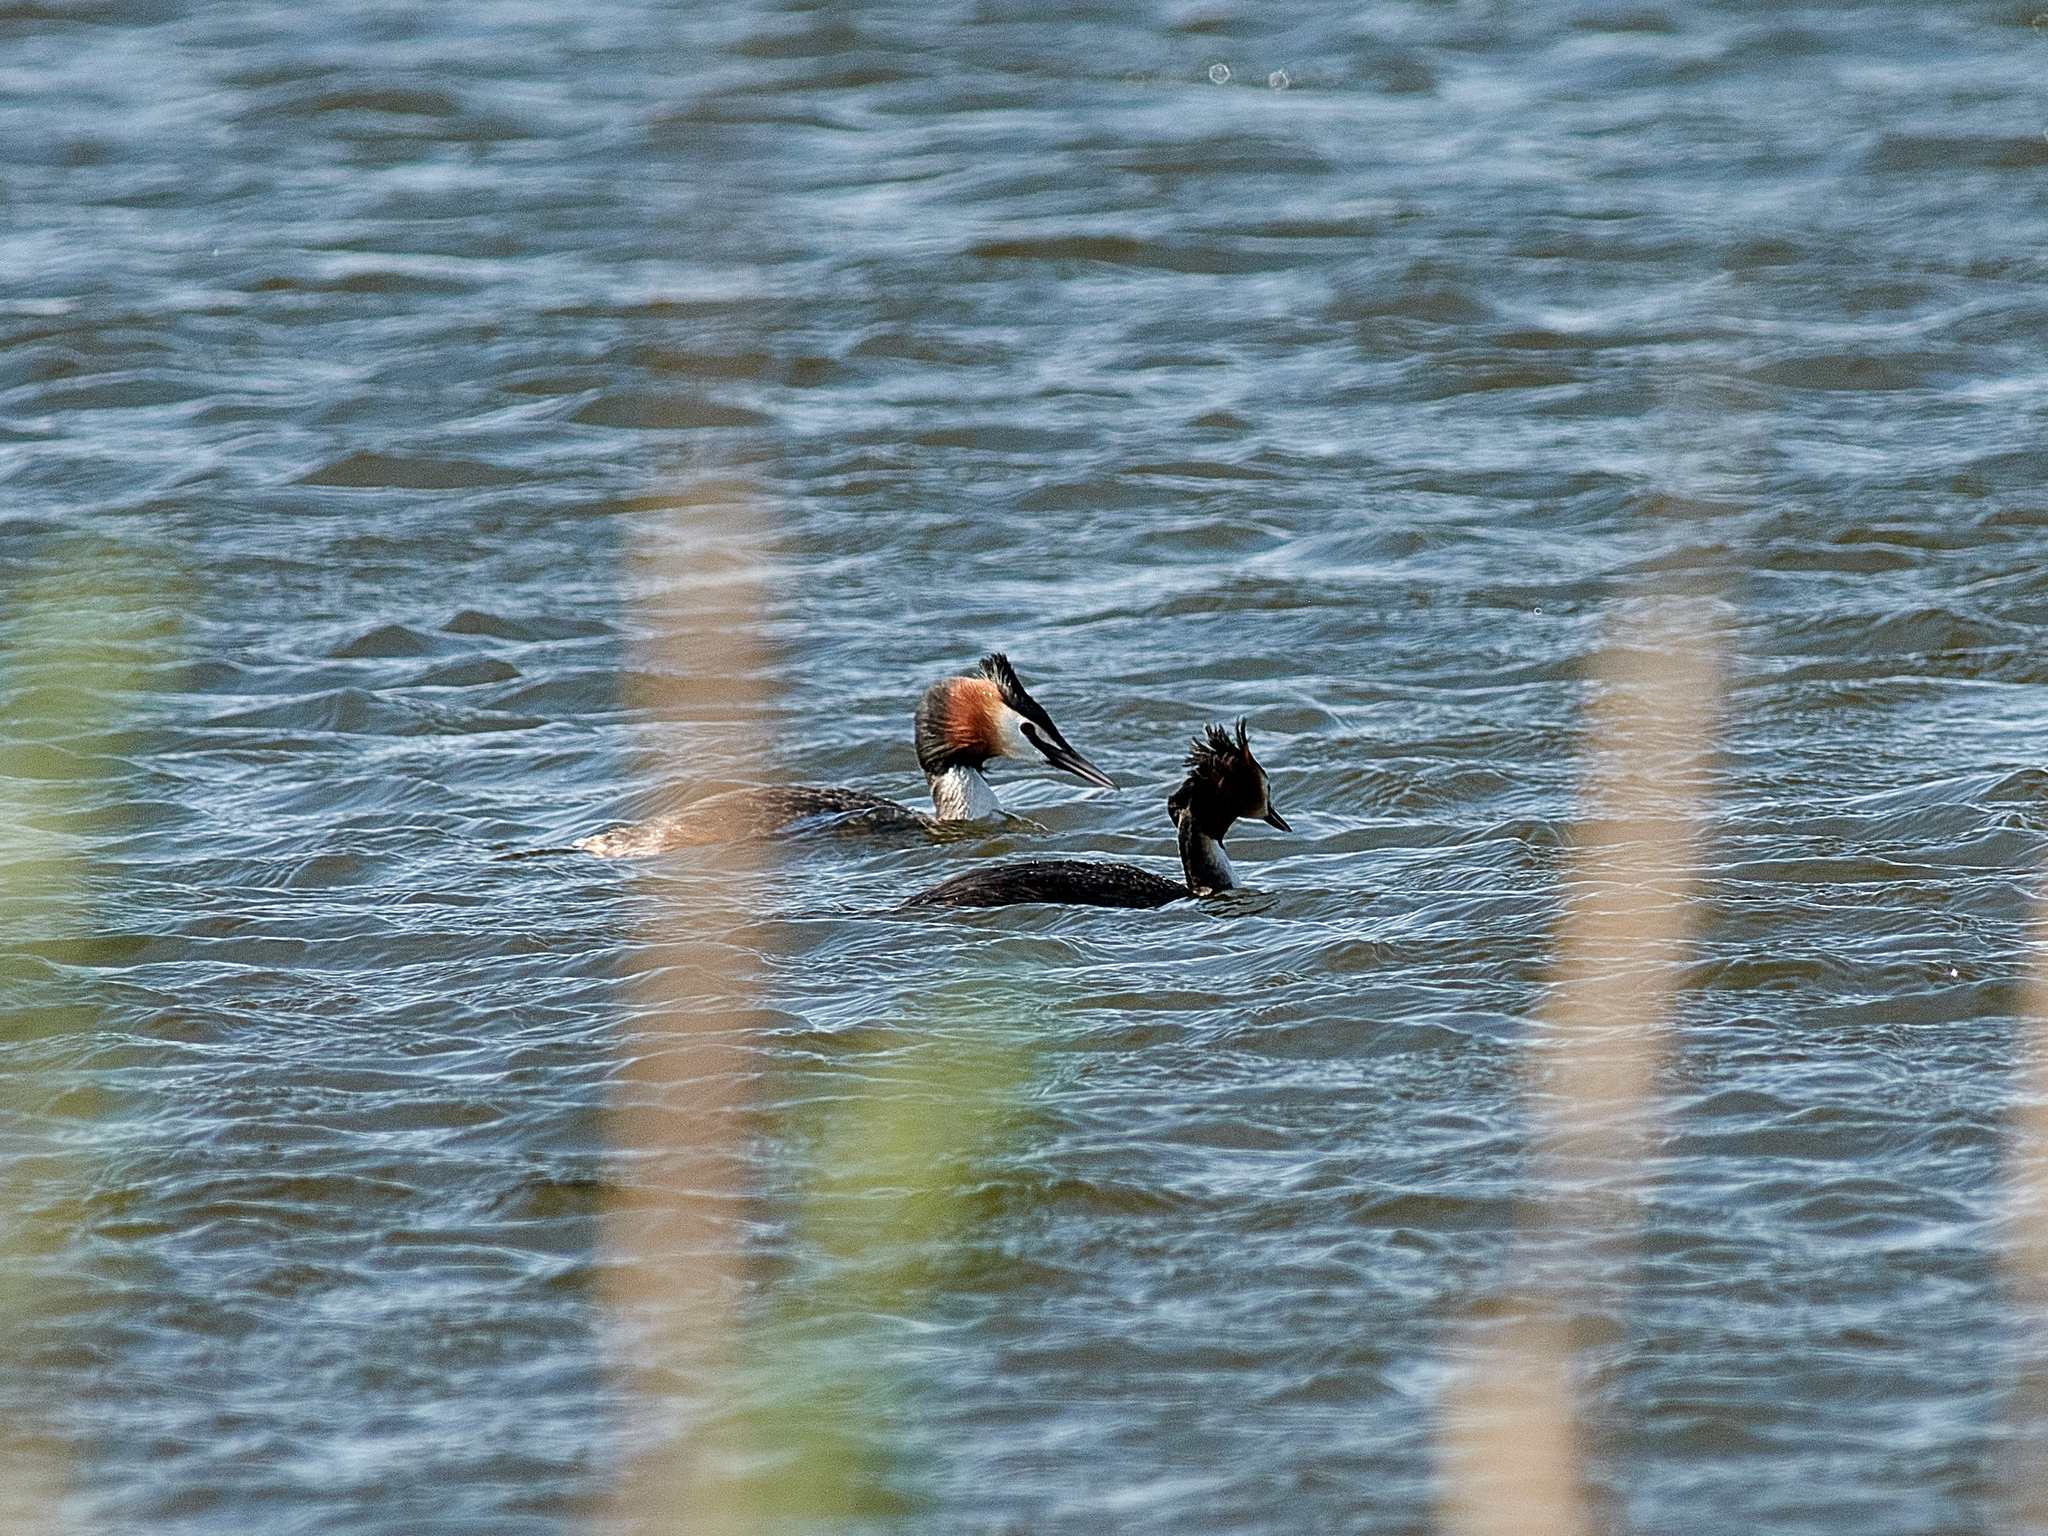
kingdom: Animalia
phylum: Chordata
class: Aves
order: Podicipediformes
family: Podicipedidae
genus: Podiceps
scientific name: Podiceps cristatus
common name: Great crested grebe
